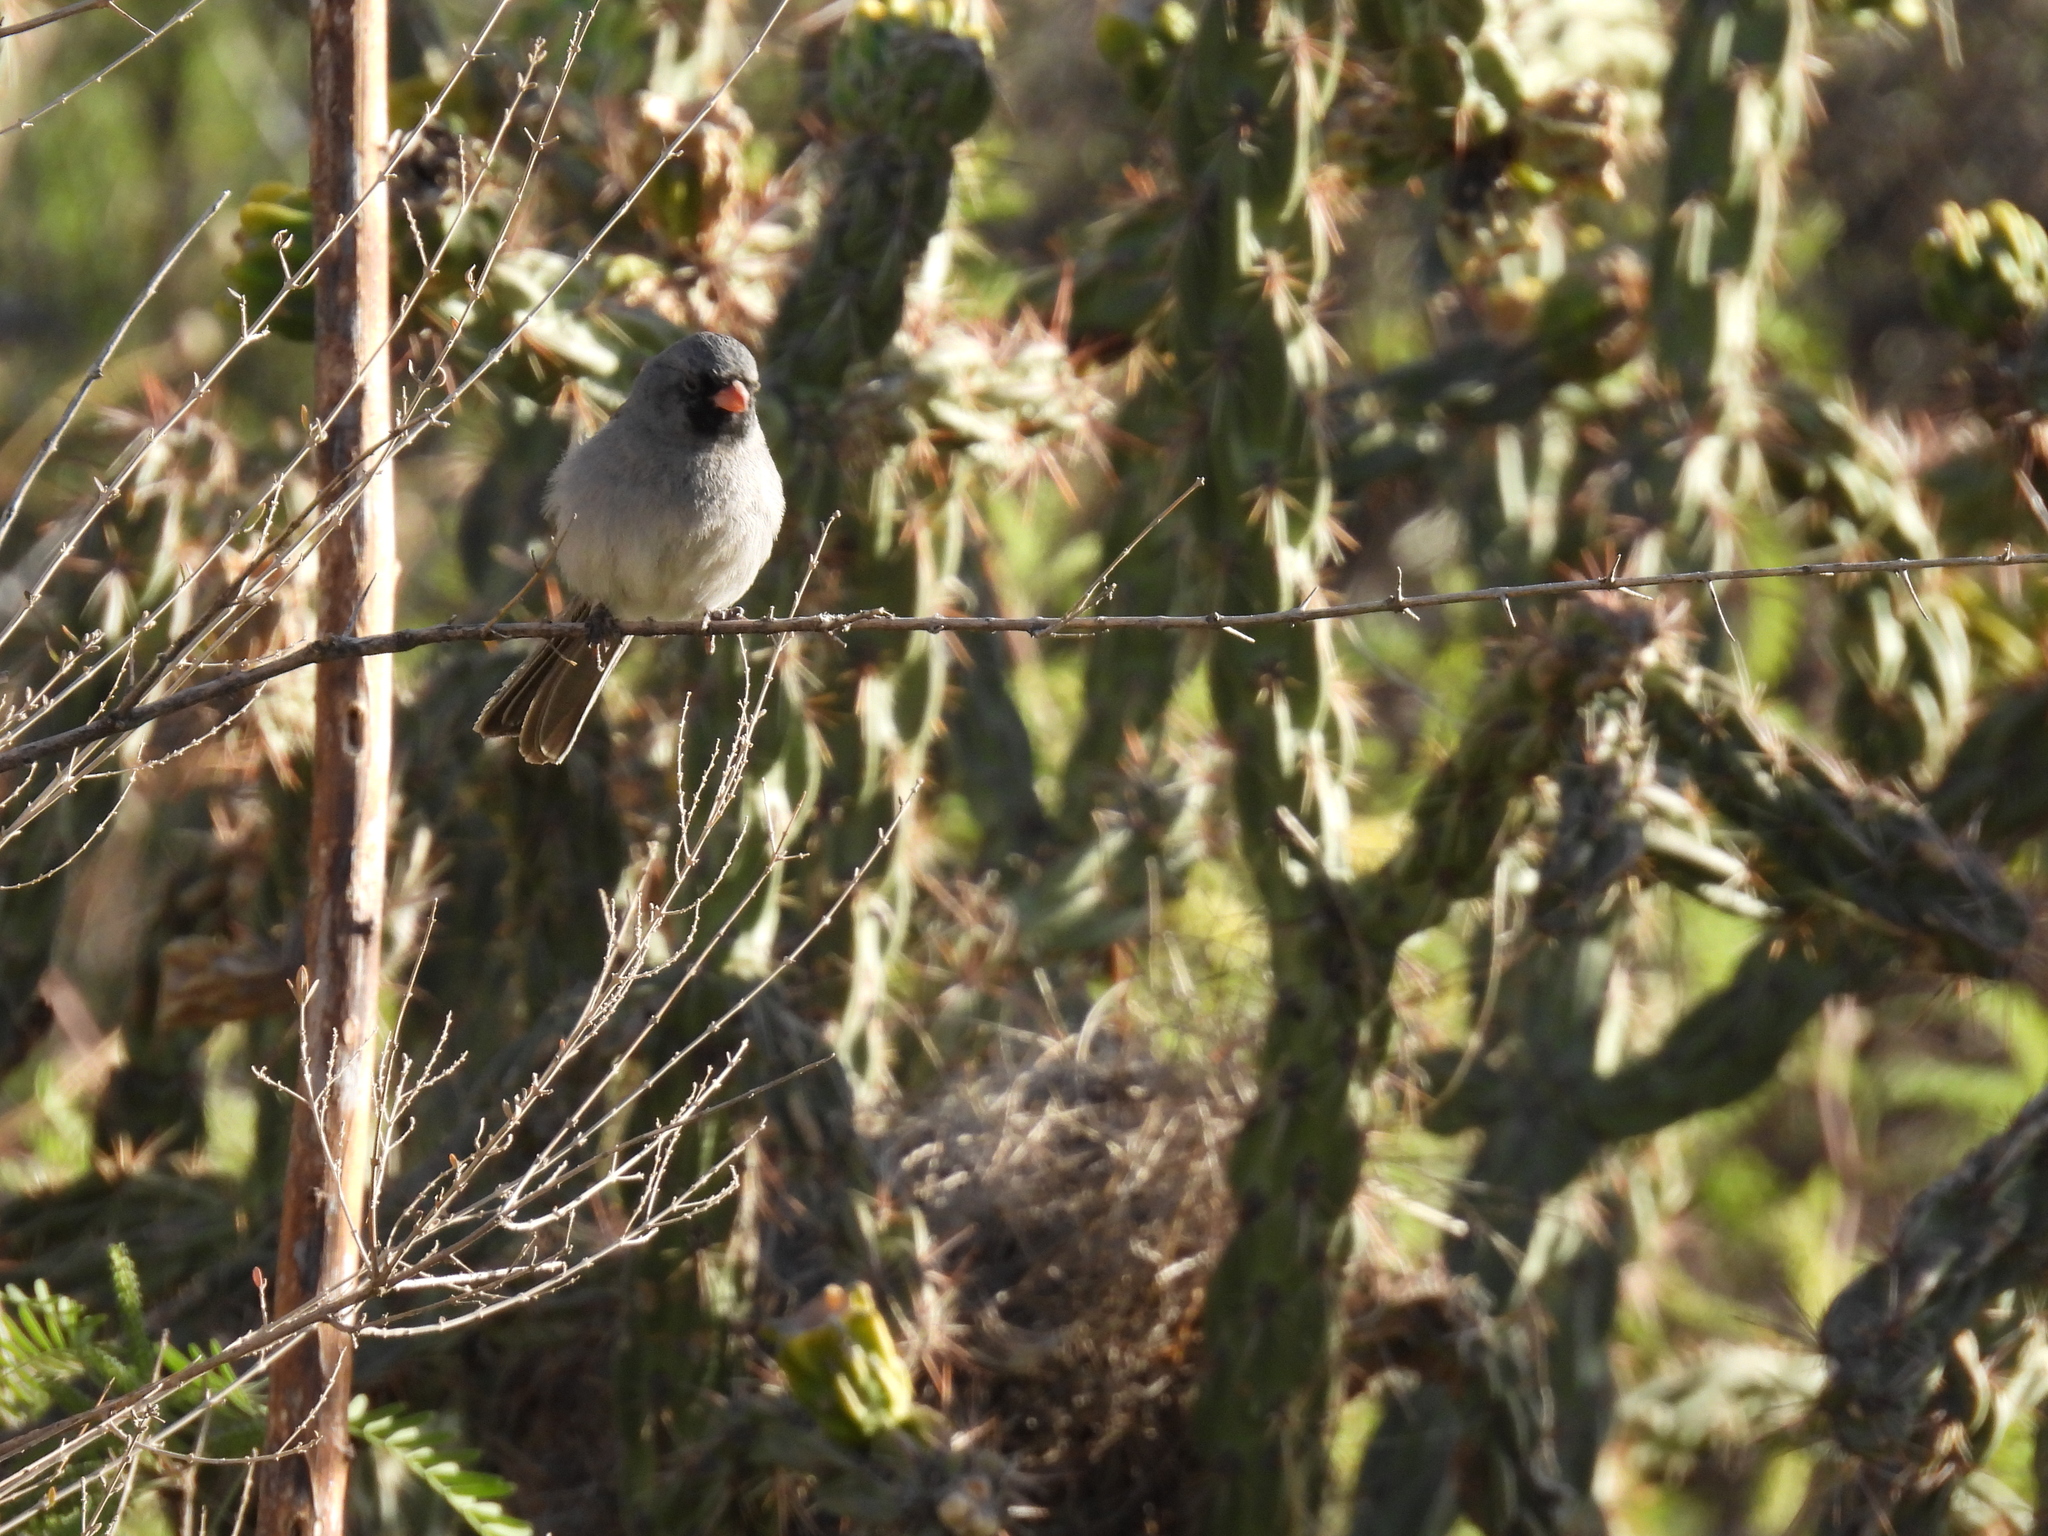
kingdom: Animalia
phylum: Chordata
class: Aves
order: Passeriformes
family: Passerellidae
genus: Spizella
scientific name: Spizella atrogularis
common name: Black-chinned sparrow
